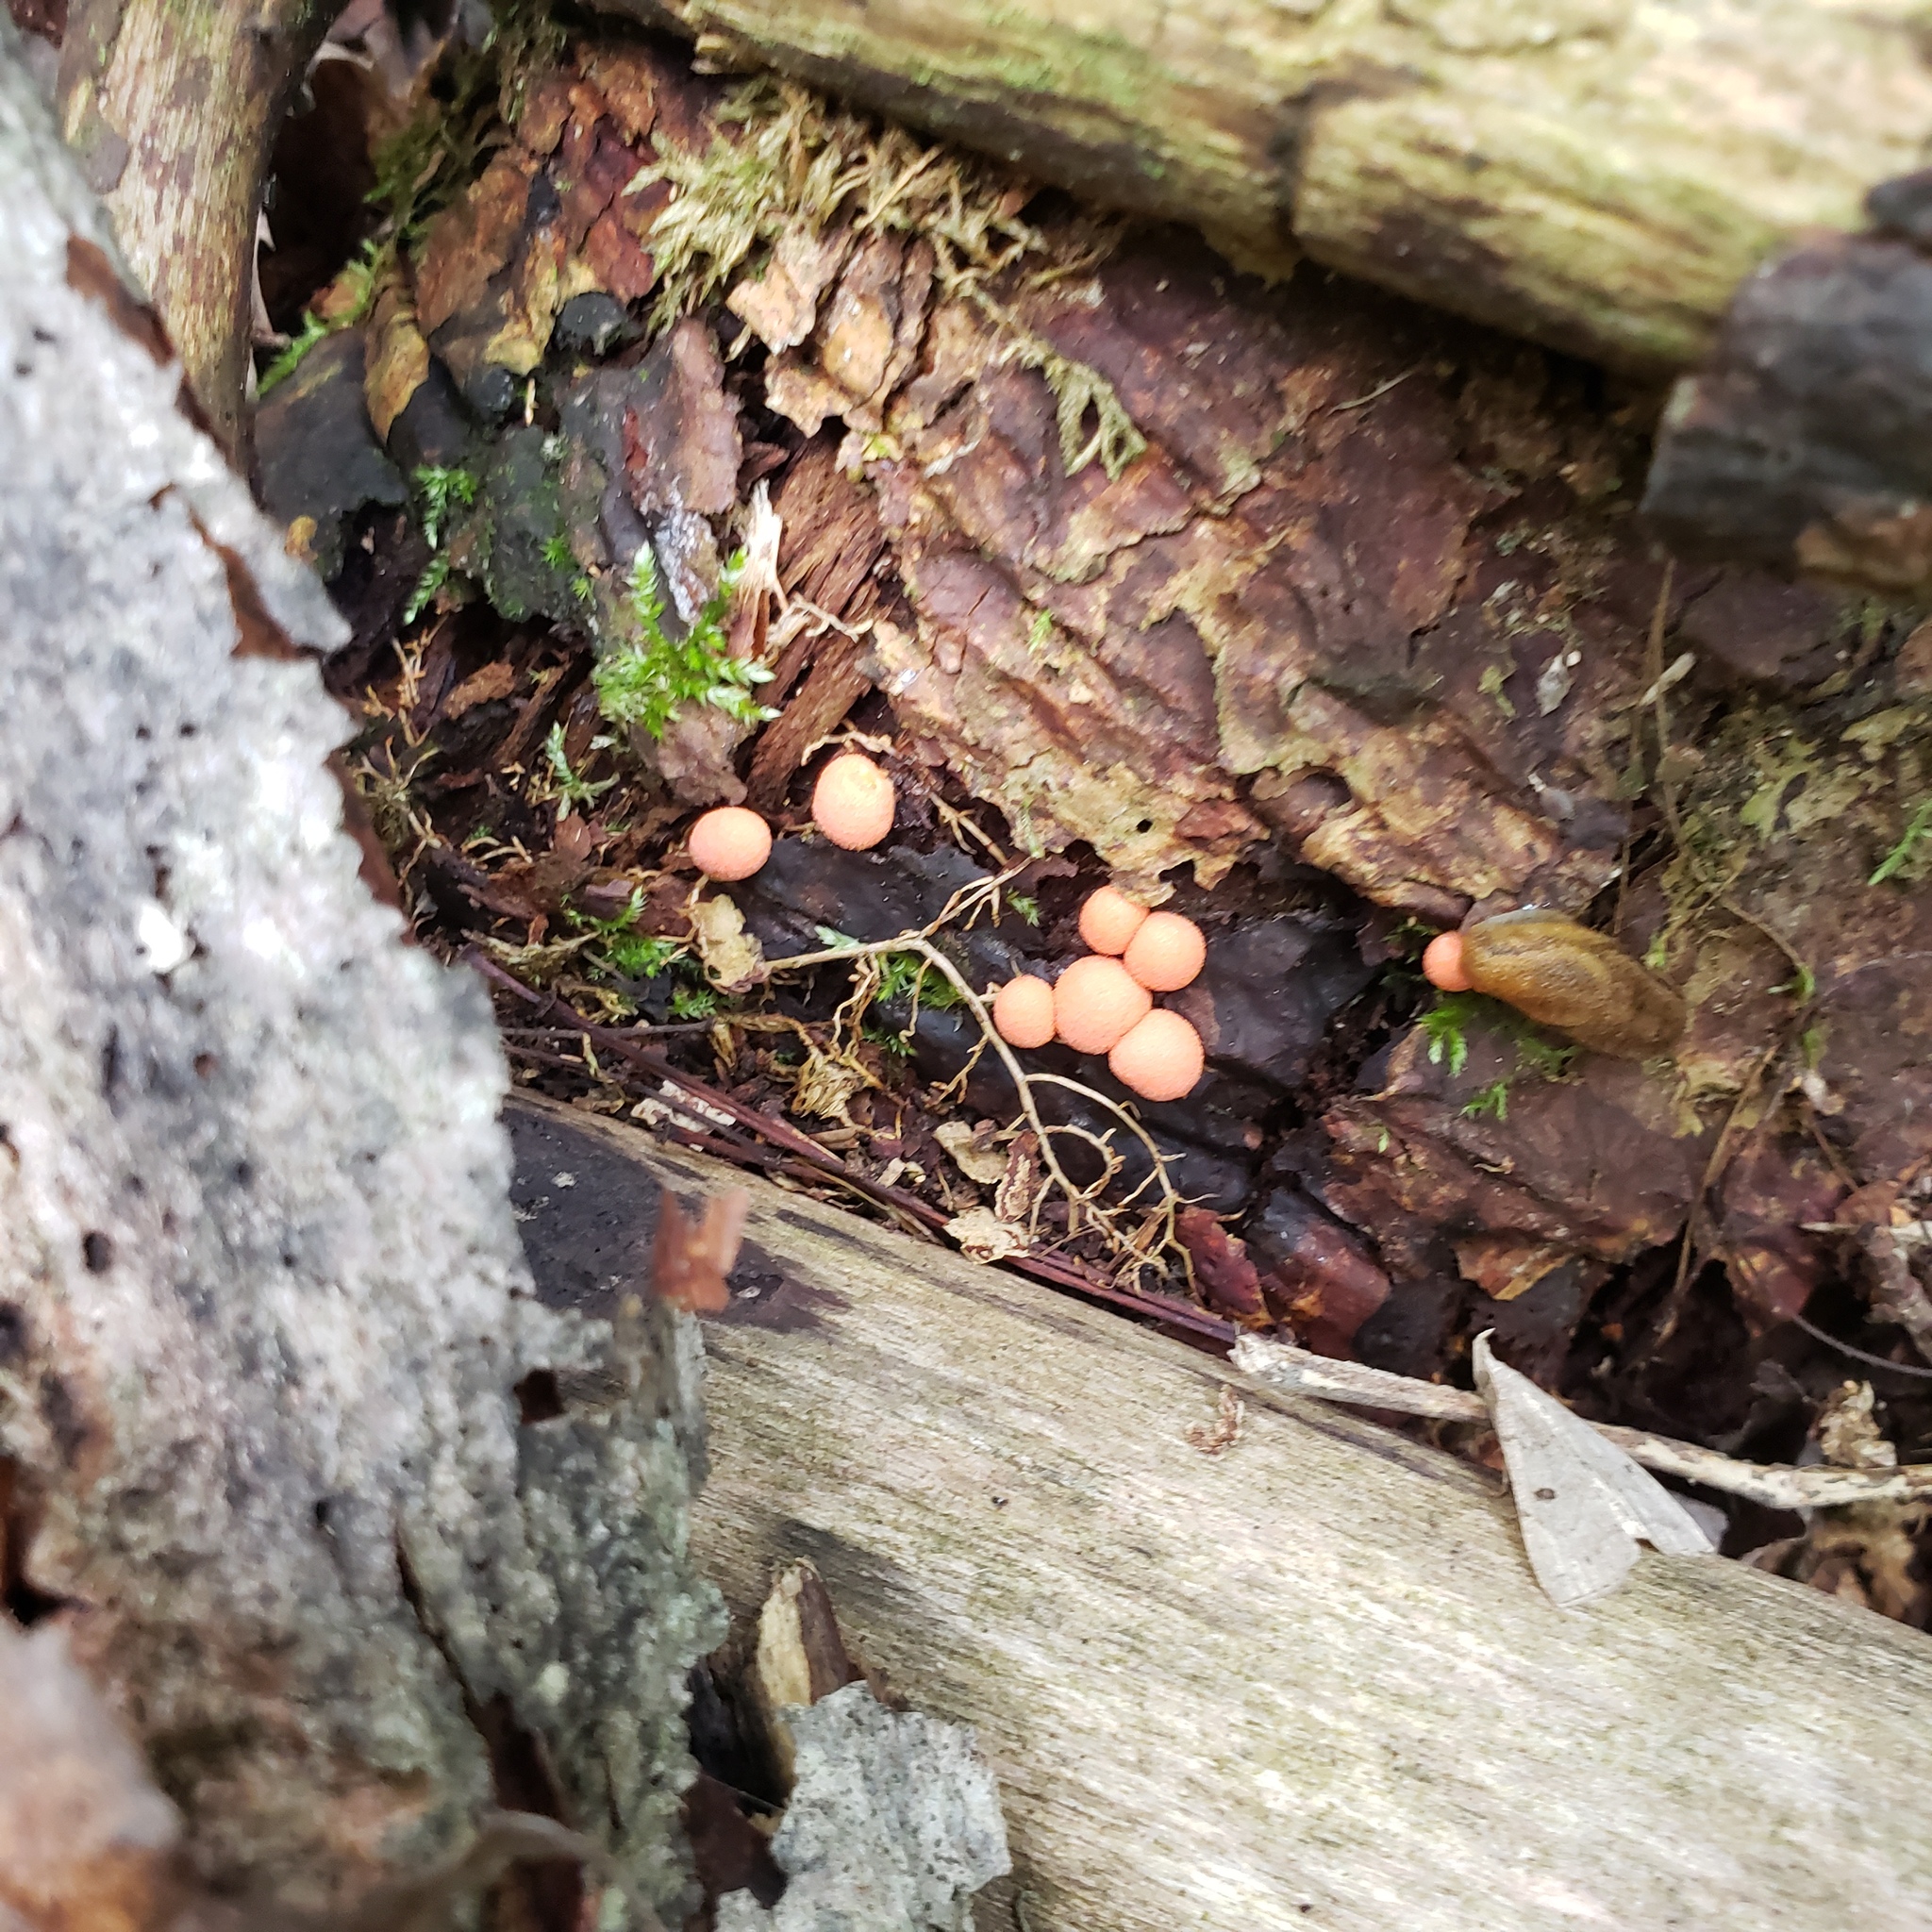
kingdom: Protozoa
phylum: Mycetozoa
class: Myxomycetes
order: Cribrariales
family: Tubiferaceae
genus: Lycogala
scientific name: Lycogala epidendrum
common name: Wolf's milk
